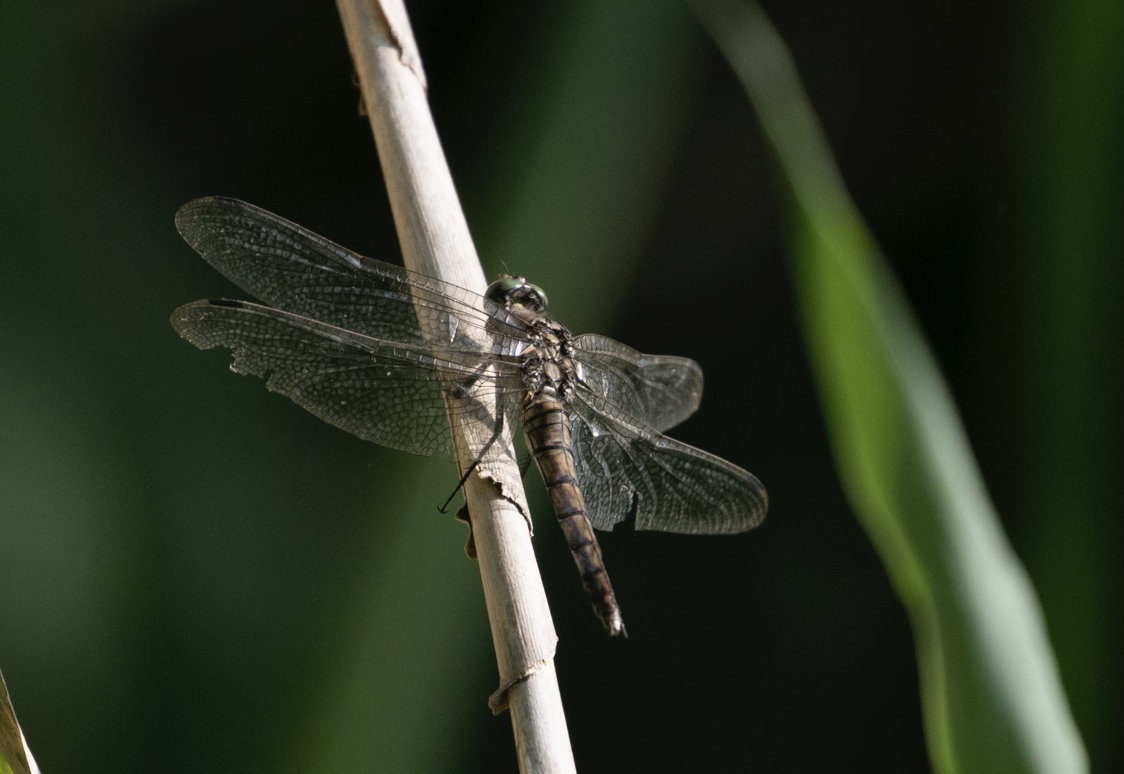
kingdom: Animalia
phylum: Arthropoda
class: Insecta
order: Odonata
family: Libellulidae
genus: Orthetrum
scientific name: Orthetrum cancellatum
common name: Black-tailed skimmer
